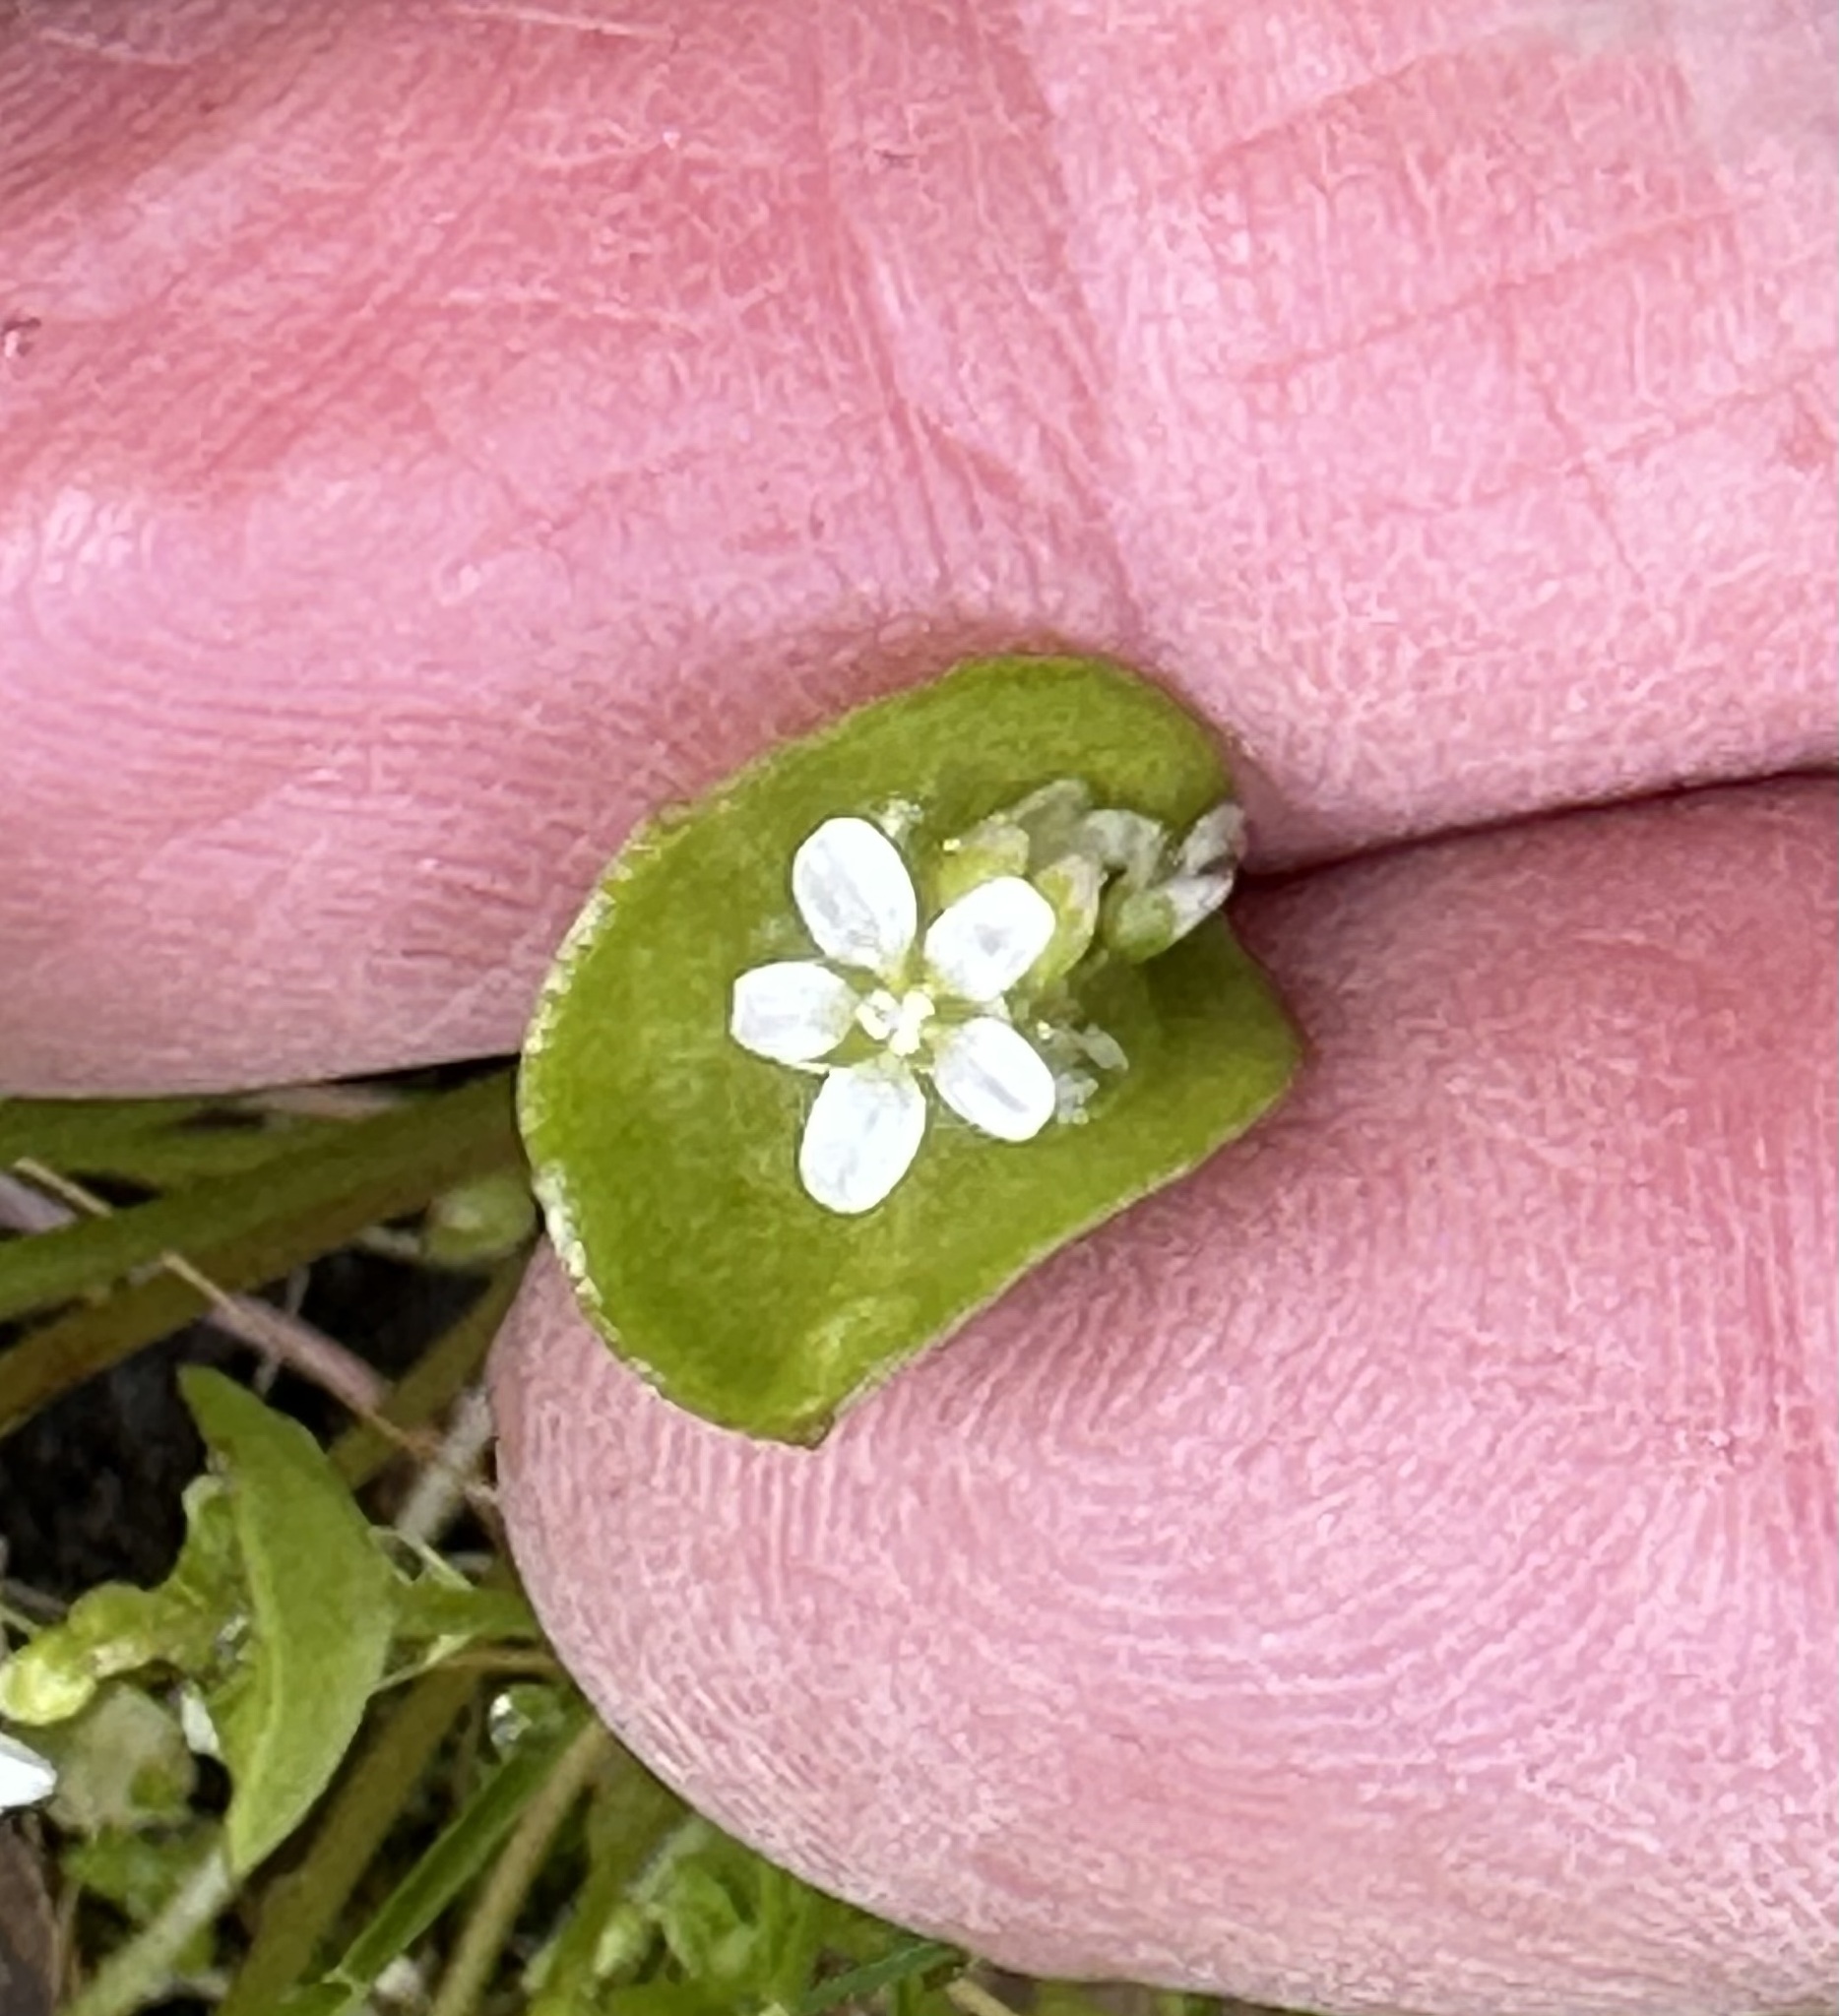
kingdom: Plantae
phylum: Tracheophyta
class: Magnoliopsida
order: Caryophyllales
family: Montiaceae
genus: Claytonia
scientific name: Claytonia perfoliata
